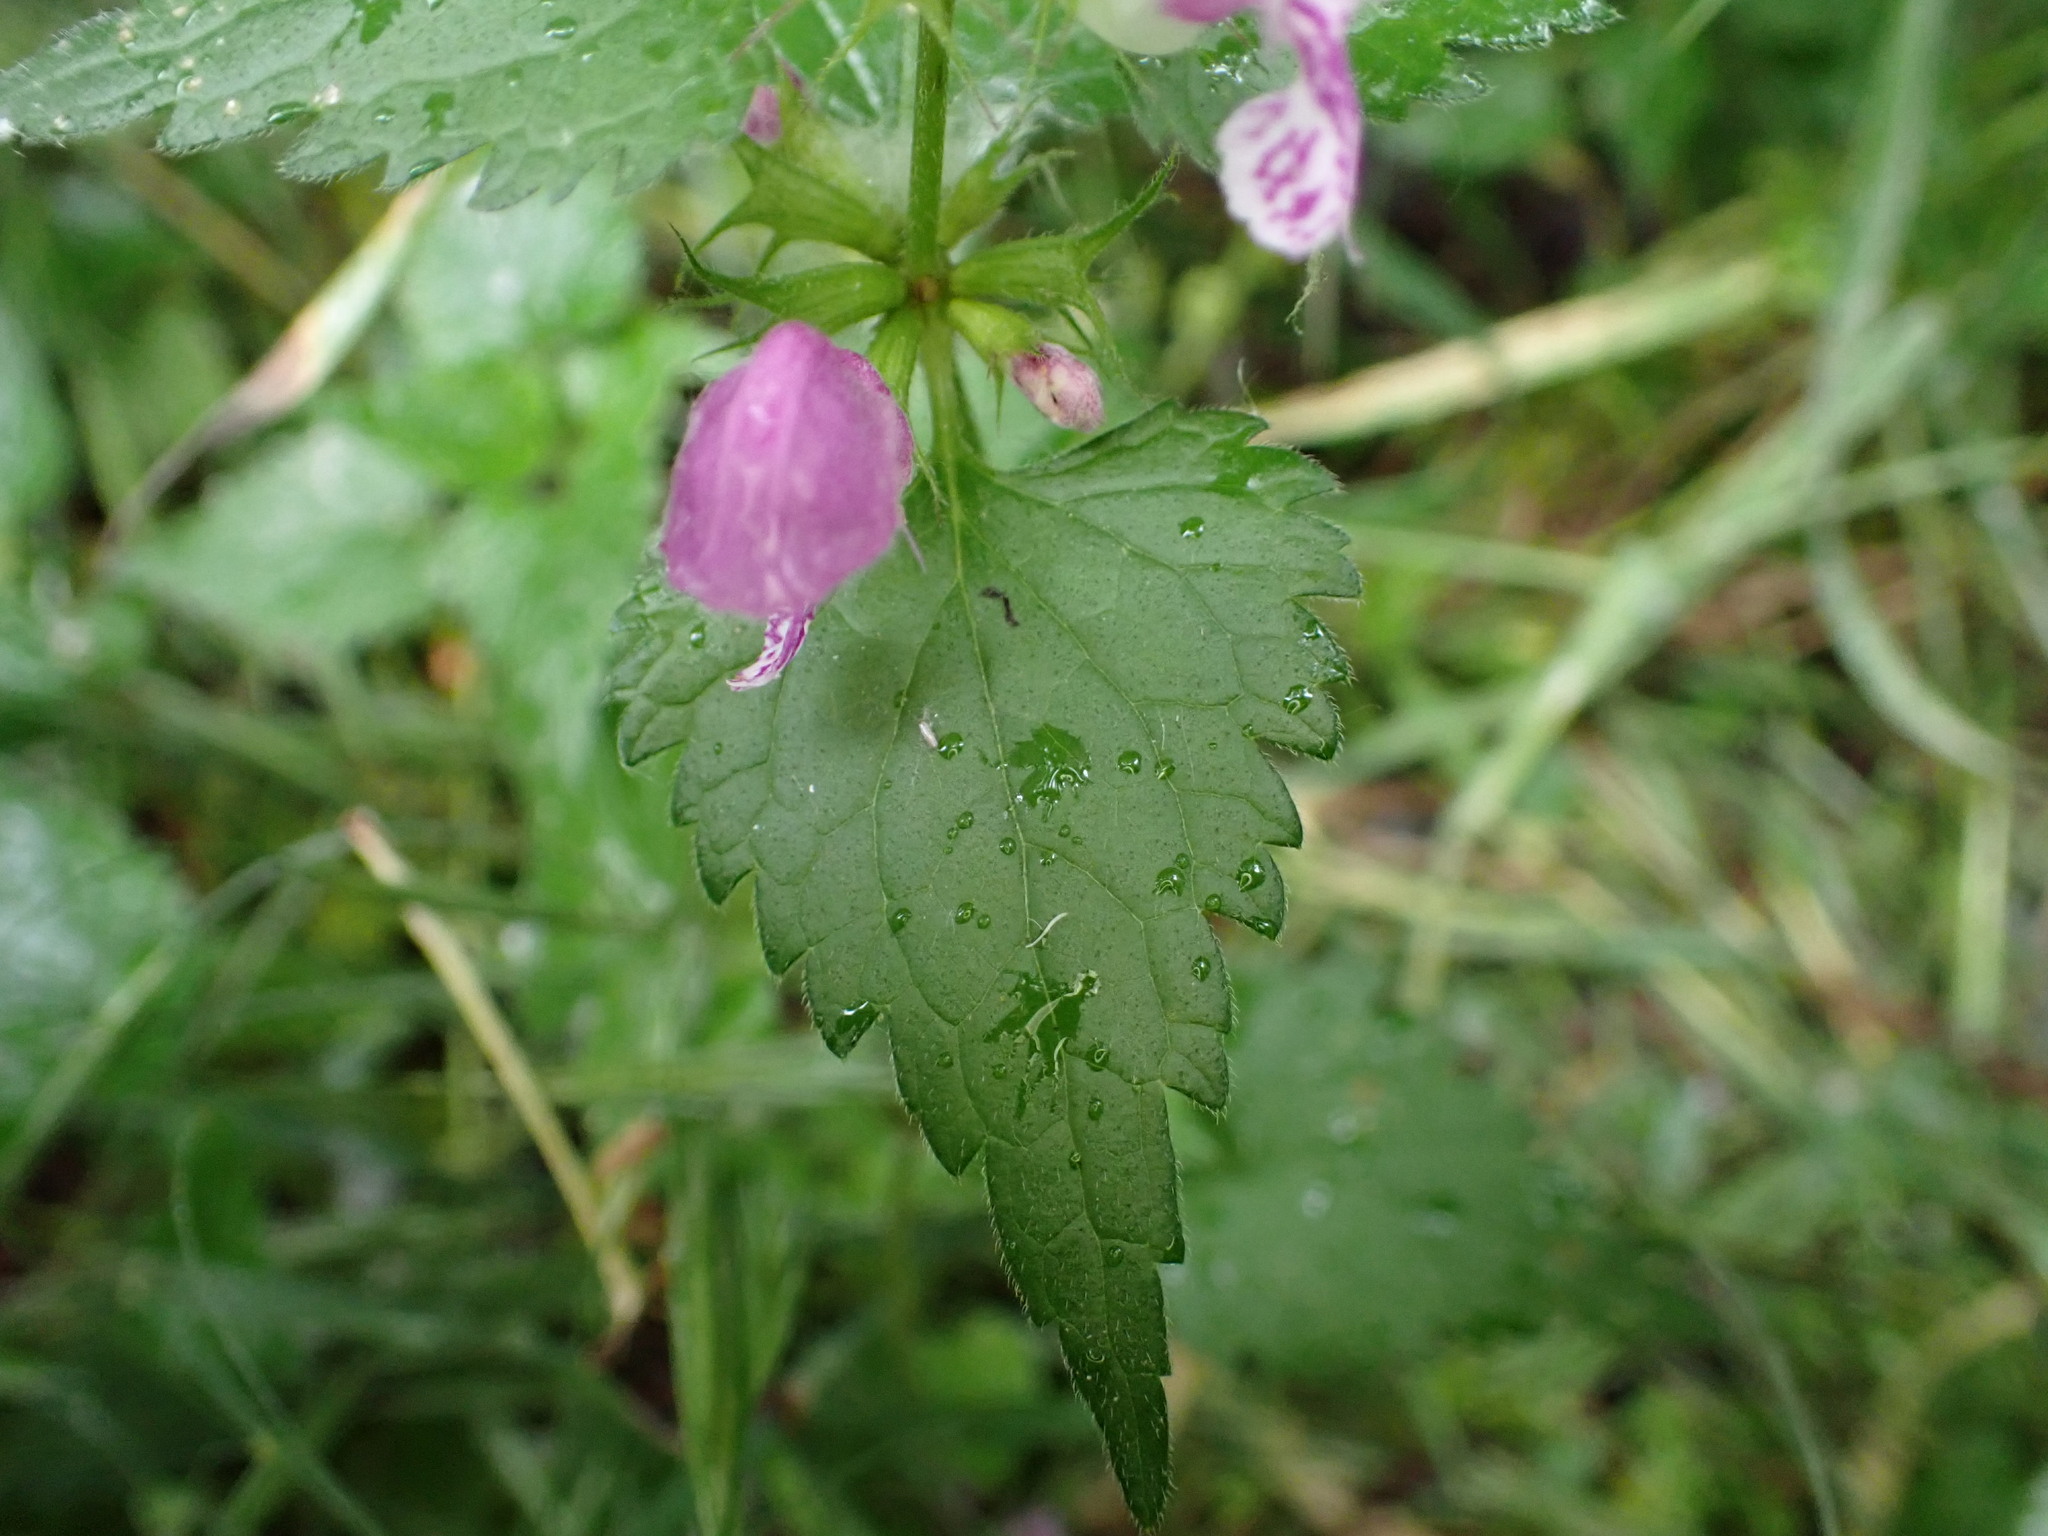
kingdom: Plantae
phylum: Tracheophyta
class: Magnoliopsida
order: Lamiales
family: Lamiaceae
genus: Lamium
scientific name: Lamium maculatum
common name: Spotted dead-nettle
